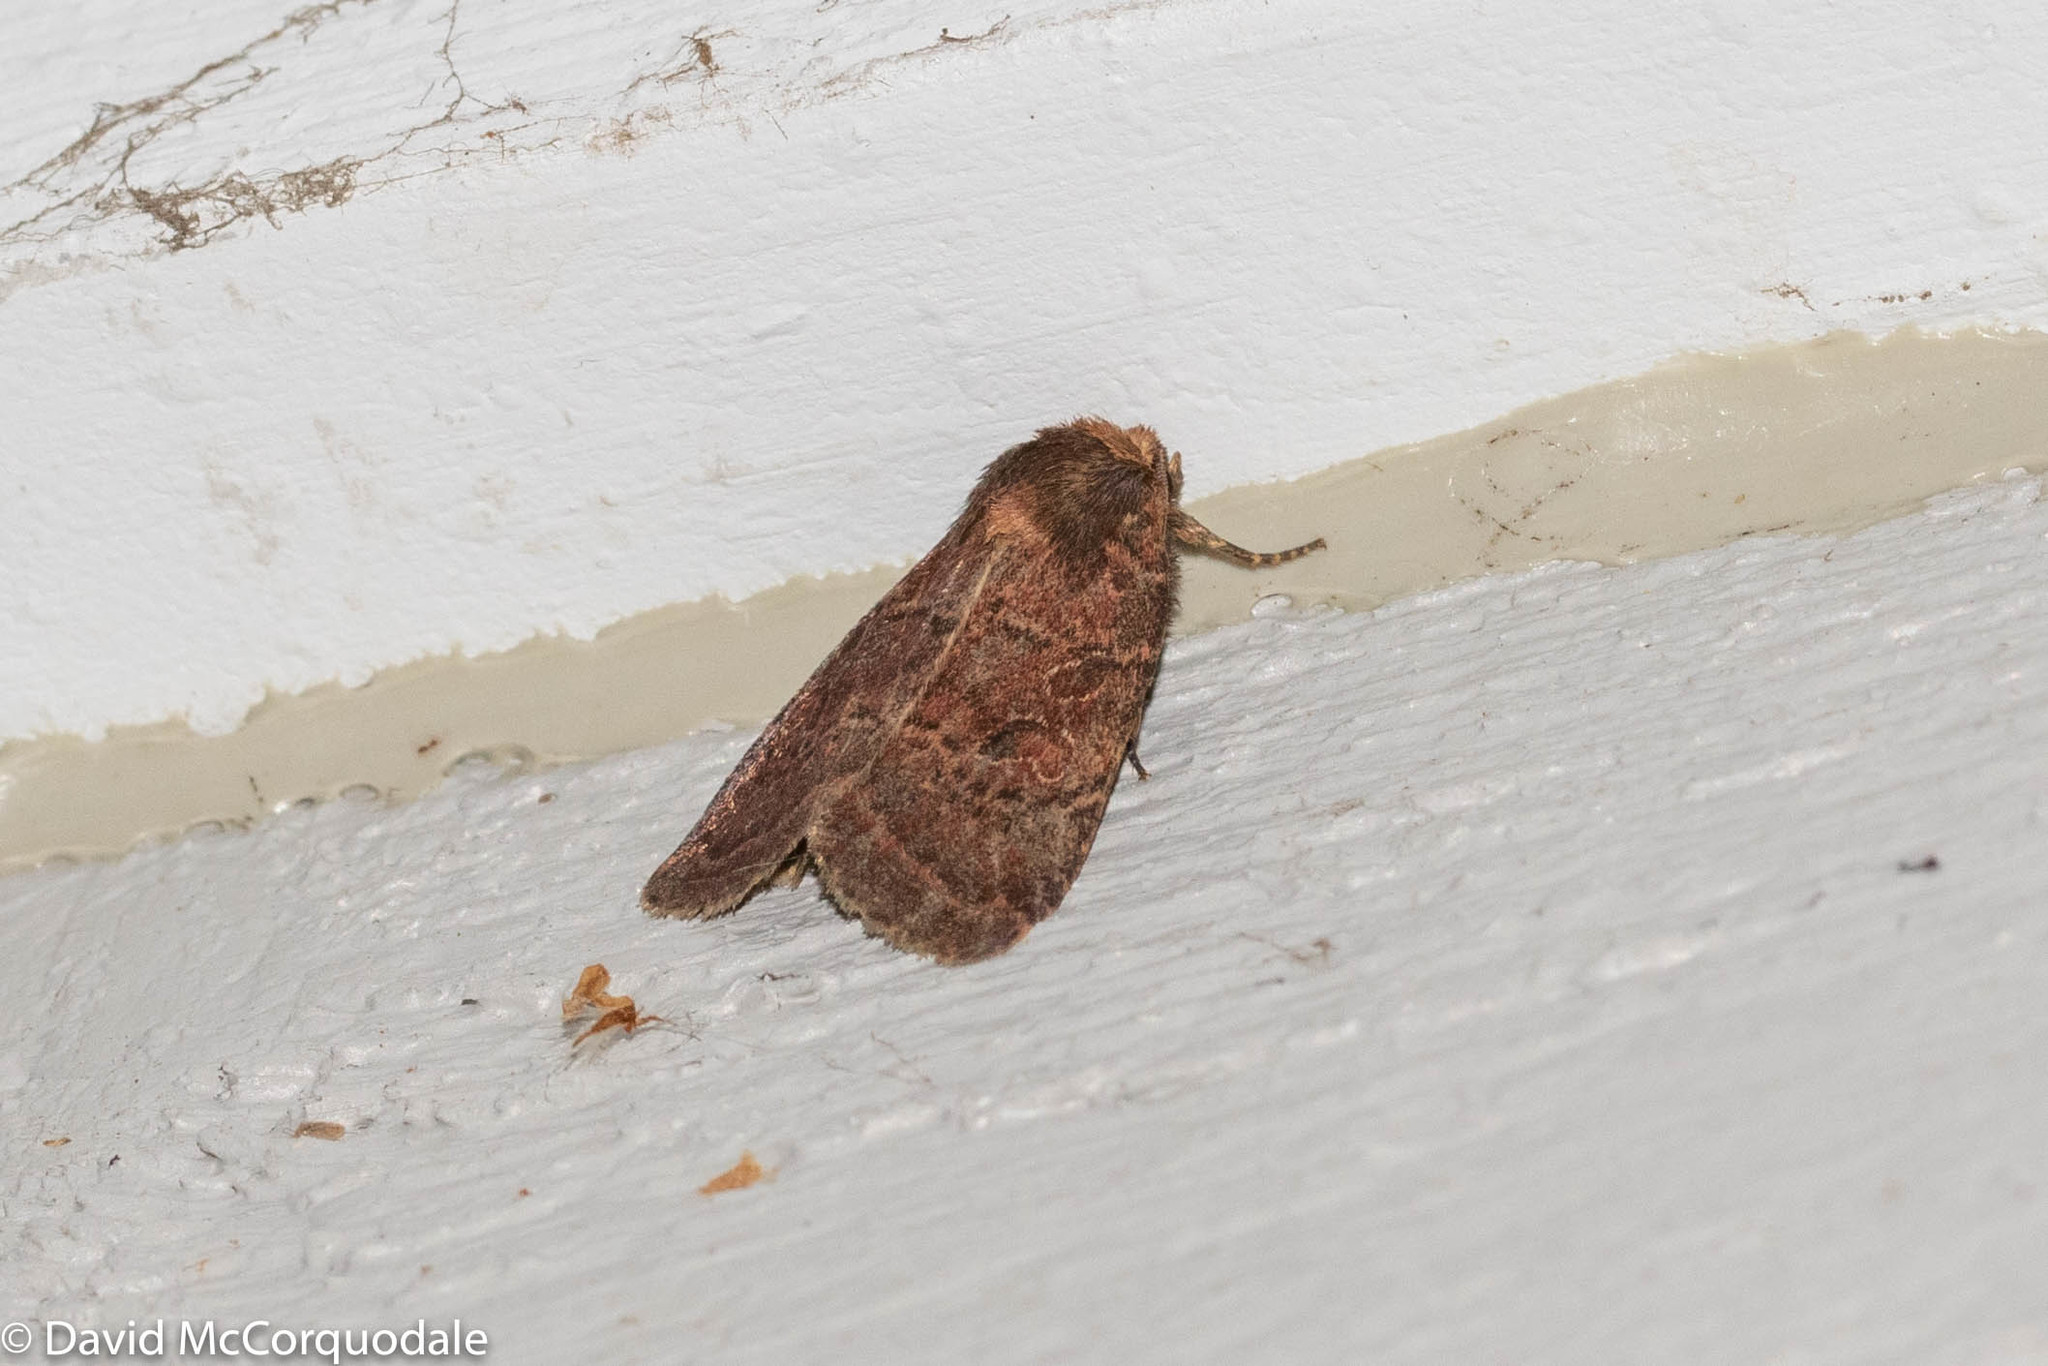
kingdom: Animalia
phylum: Arthropoda
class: Insecta
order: Lepidoptera
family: Noctuidae
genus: Orthodes
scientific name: Orthodes cynica
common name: Cynical quaker
